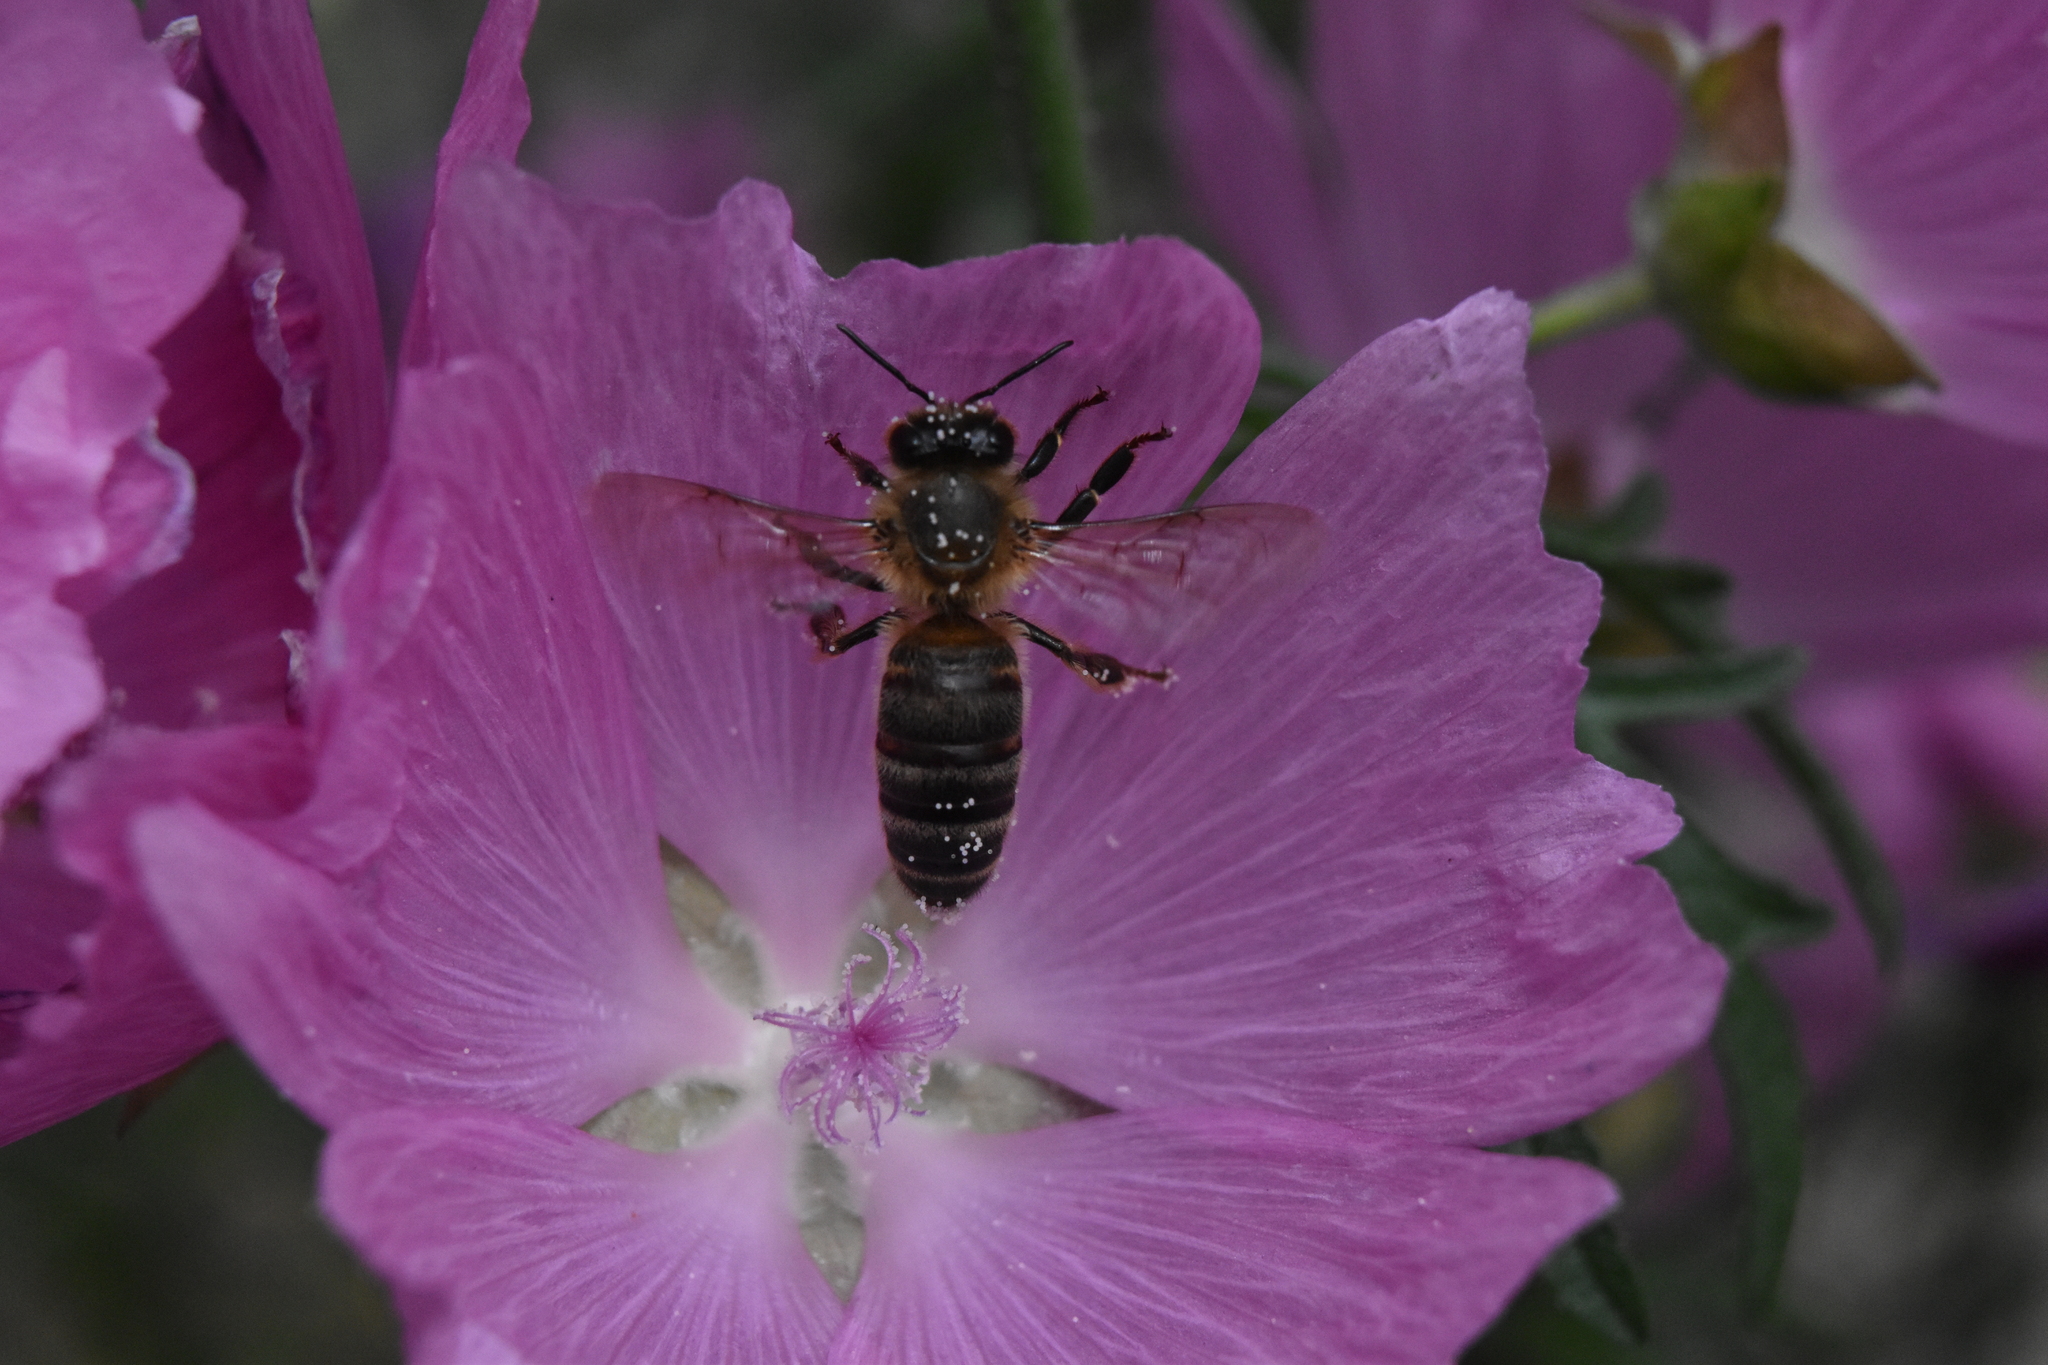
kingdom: Animalia
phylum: Arthropoda
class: Insecta
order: Hymenoptera
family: Apidae
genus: Apis
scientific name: Apis mellifera
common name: Honey bee
